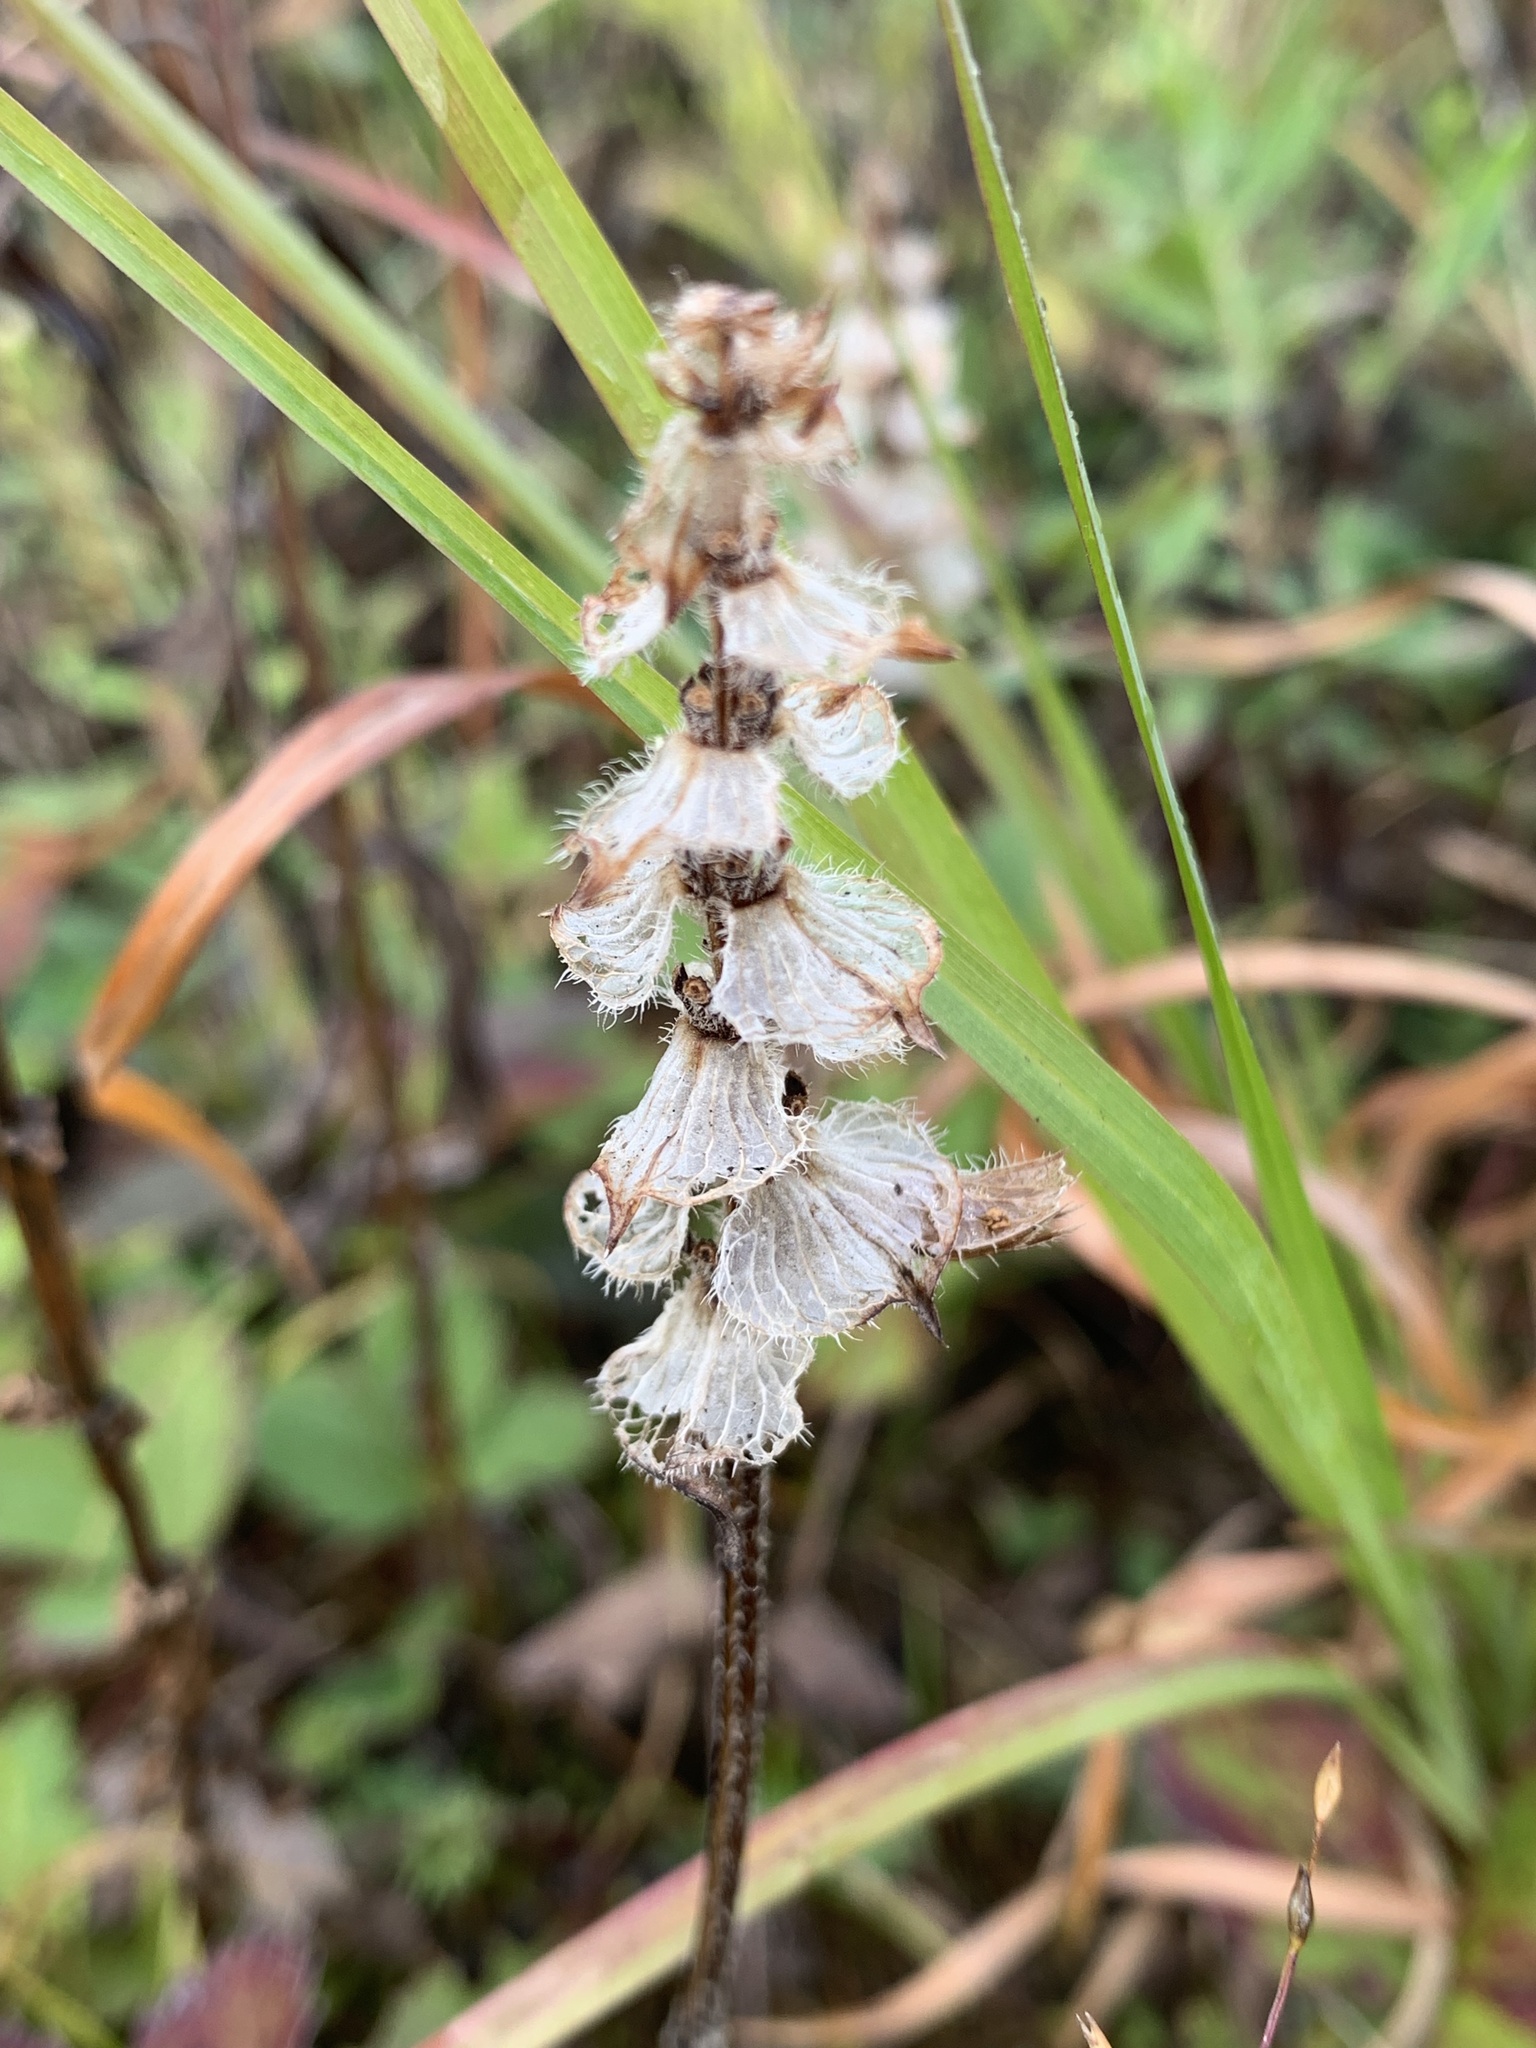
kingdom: Plantae
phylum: Tracheophyta
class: Magnoliopsida
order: Lamiales
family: Lamiaceae
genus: Prunella
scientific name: Prunella vulgaris
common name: Heal-all
